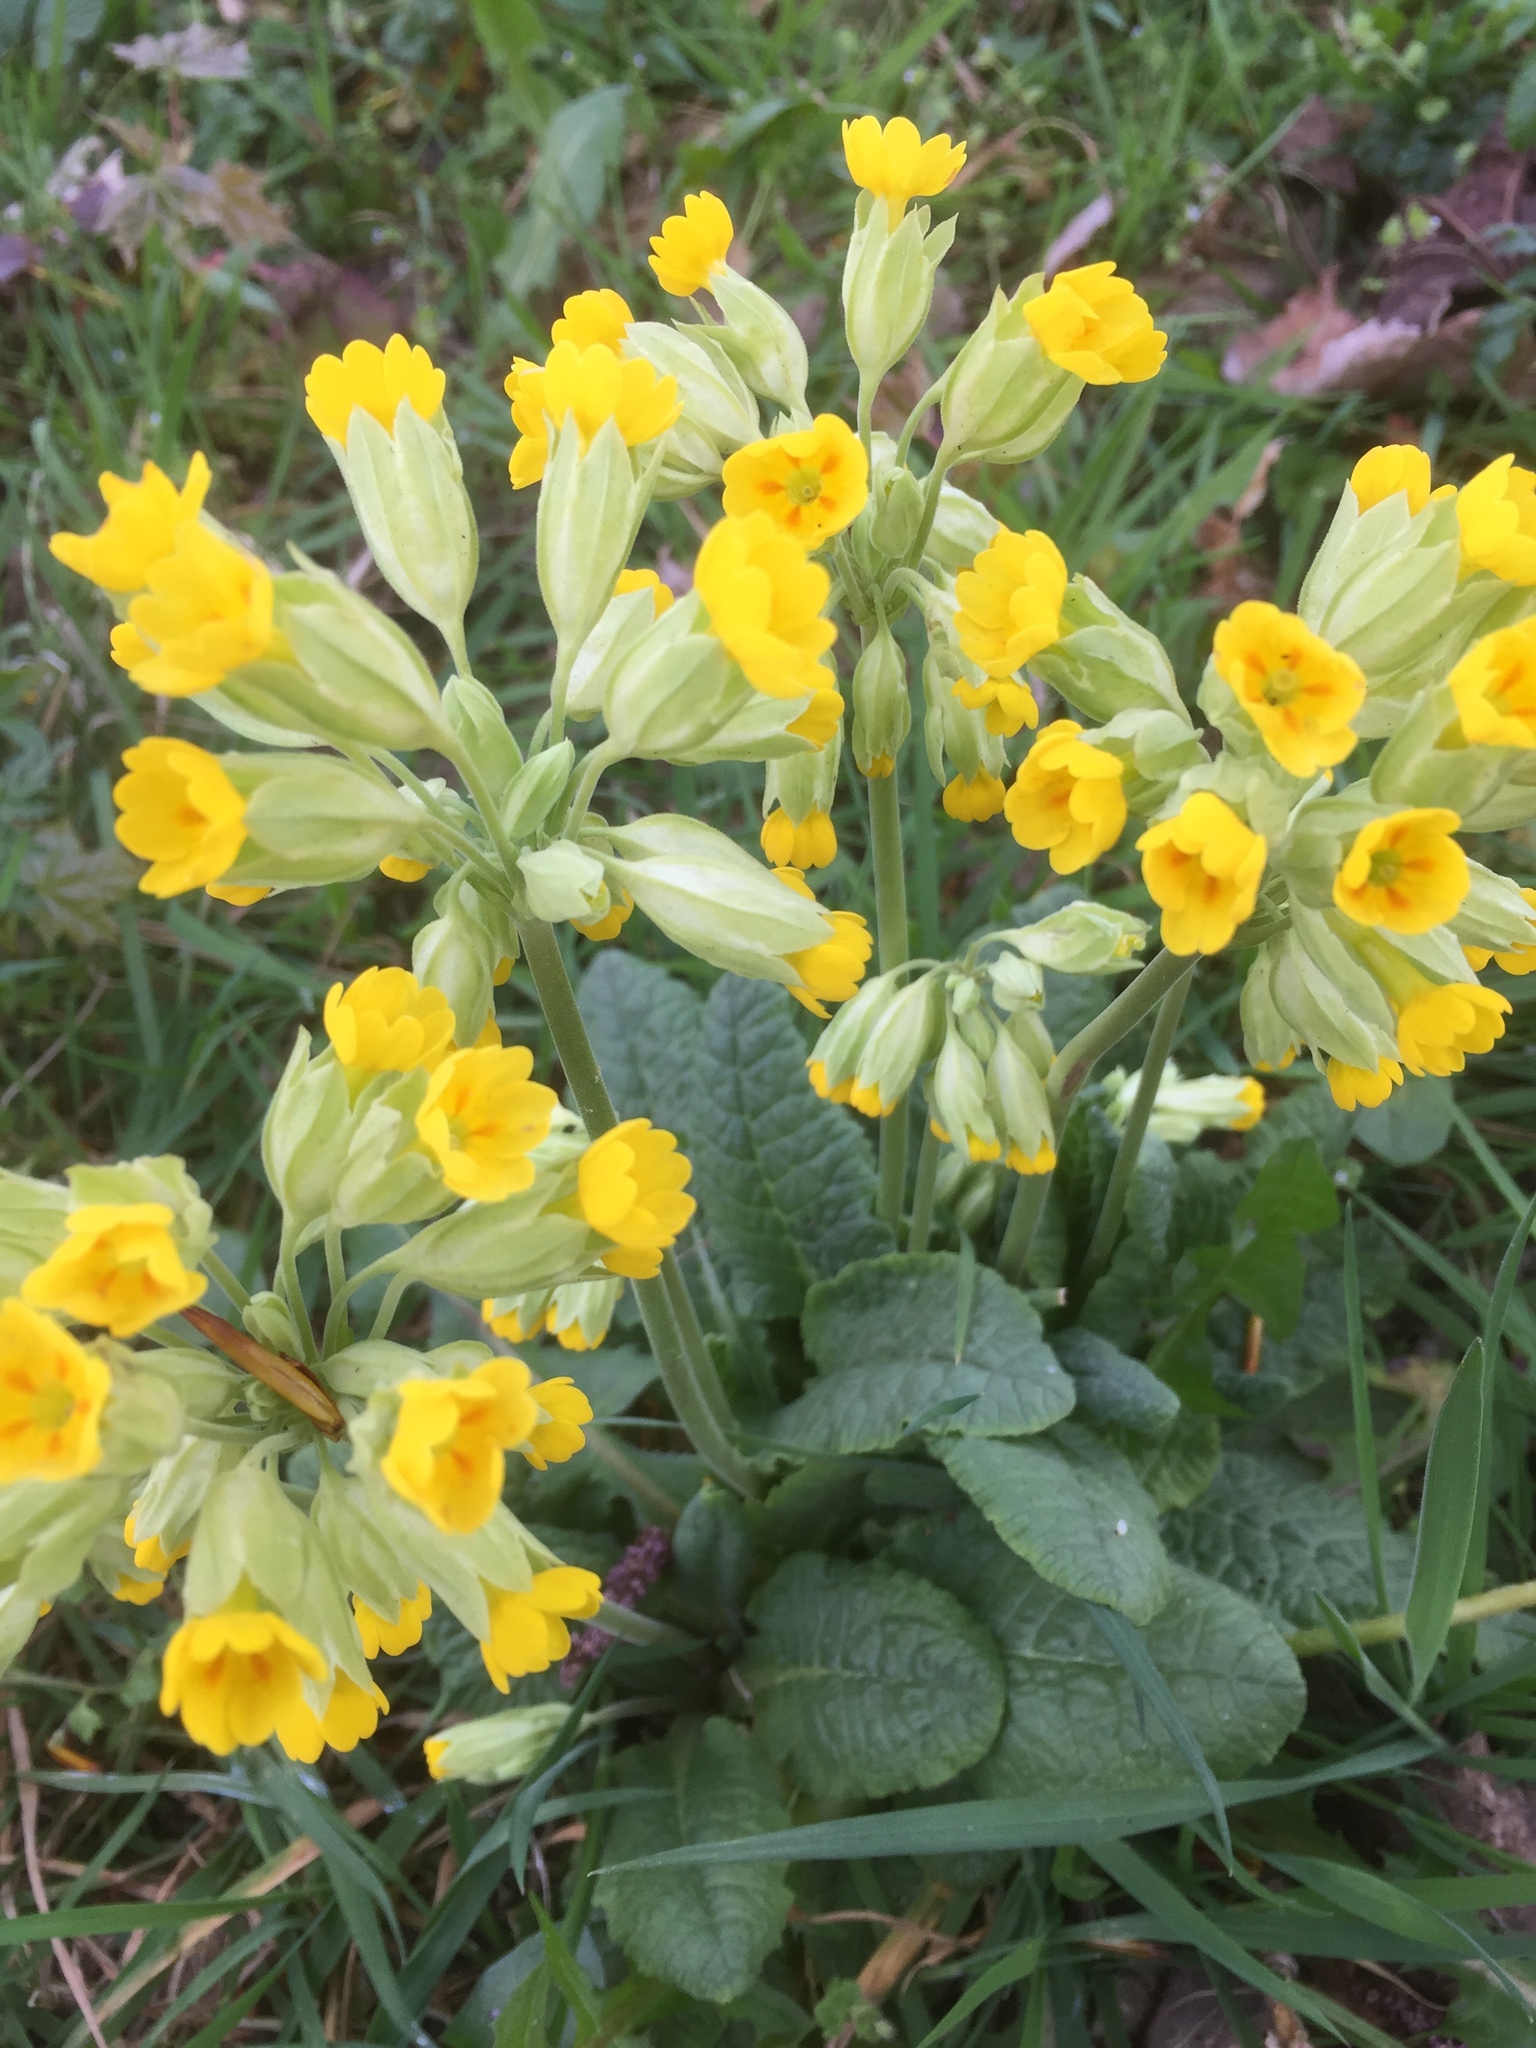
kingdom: Plantae
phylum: Tracheophyta
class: Magnoliopsida
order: Ericales
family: Primulaceae
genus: Primula
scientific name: Primula veris
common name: Cowslip
